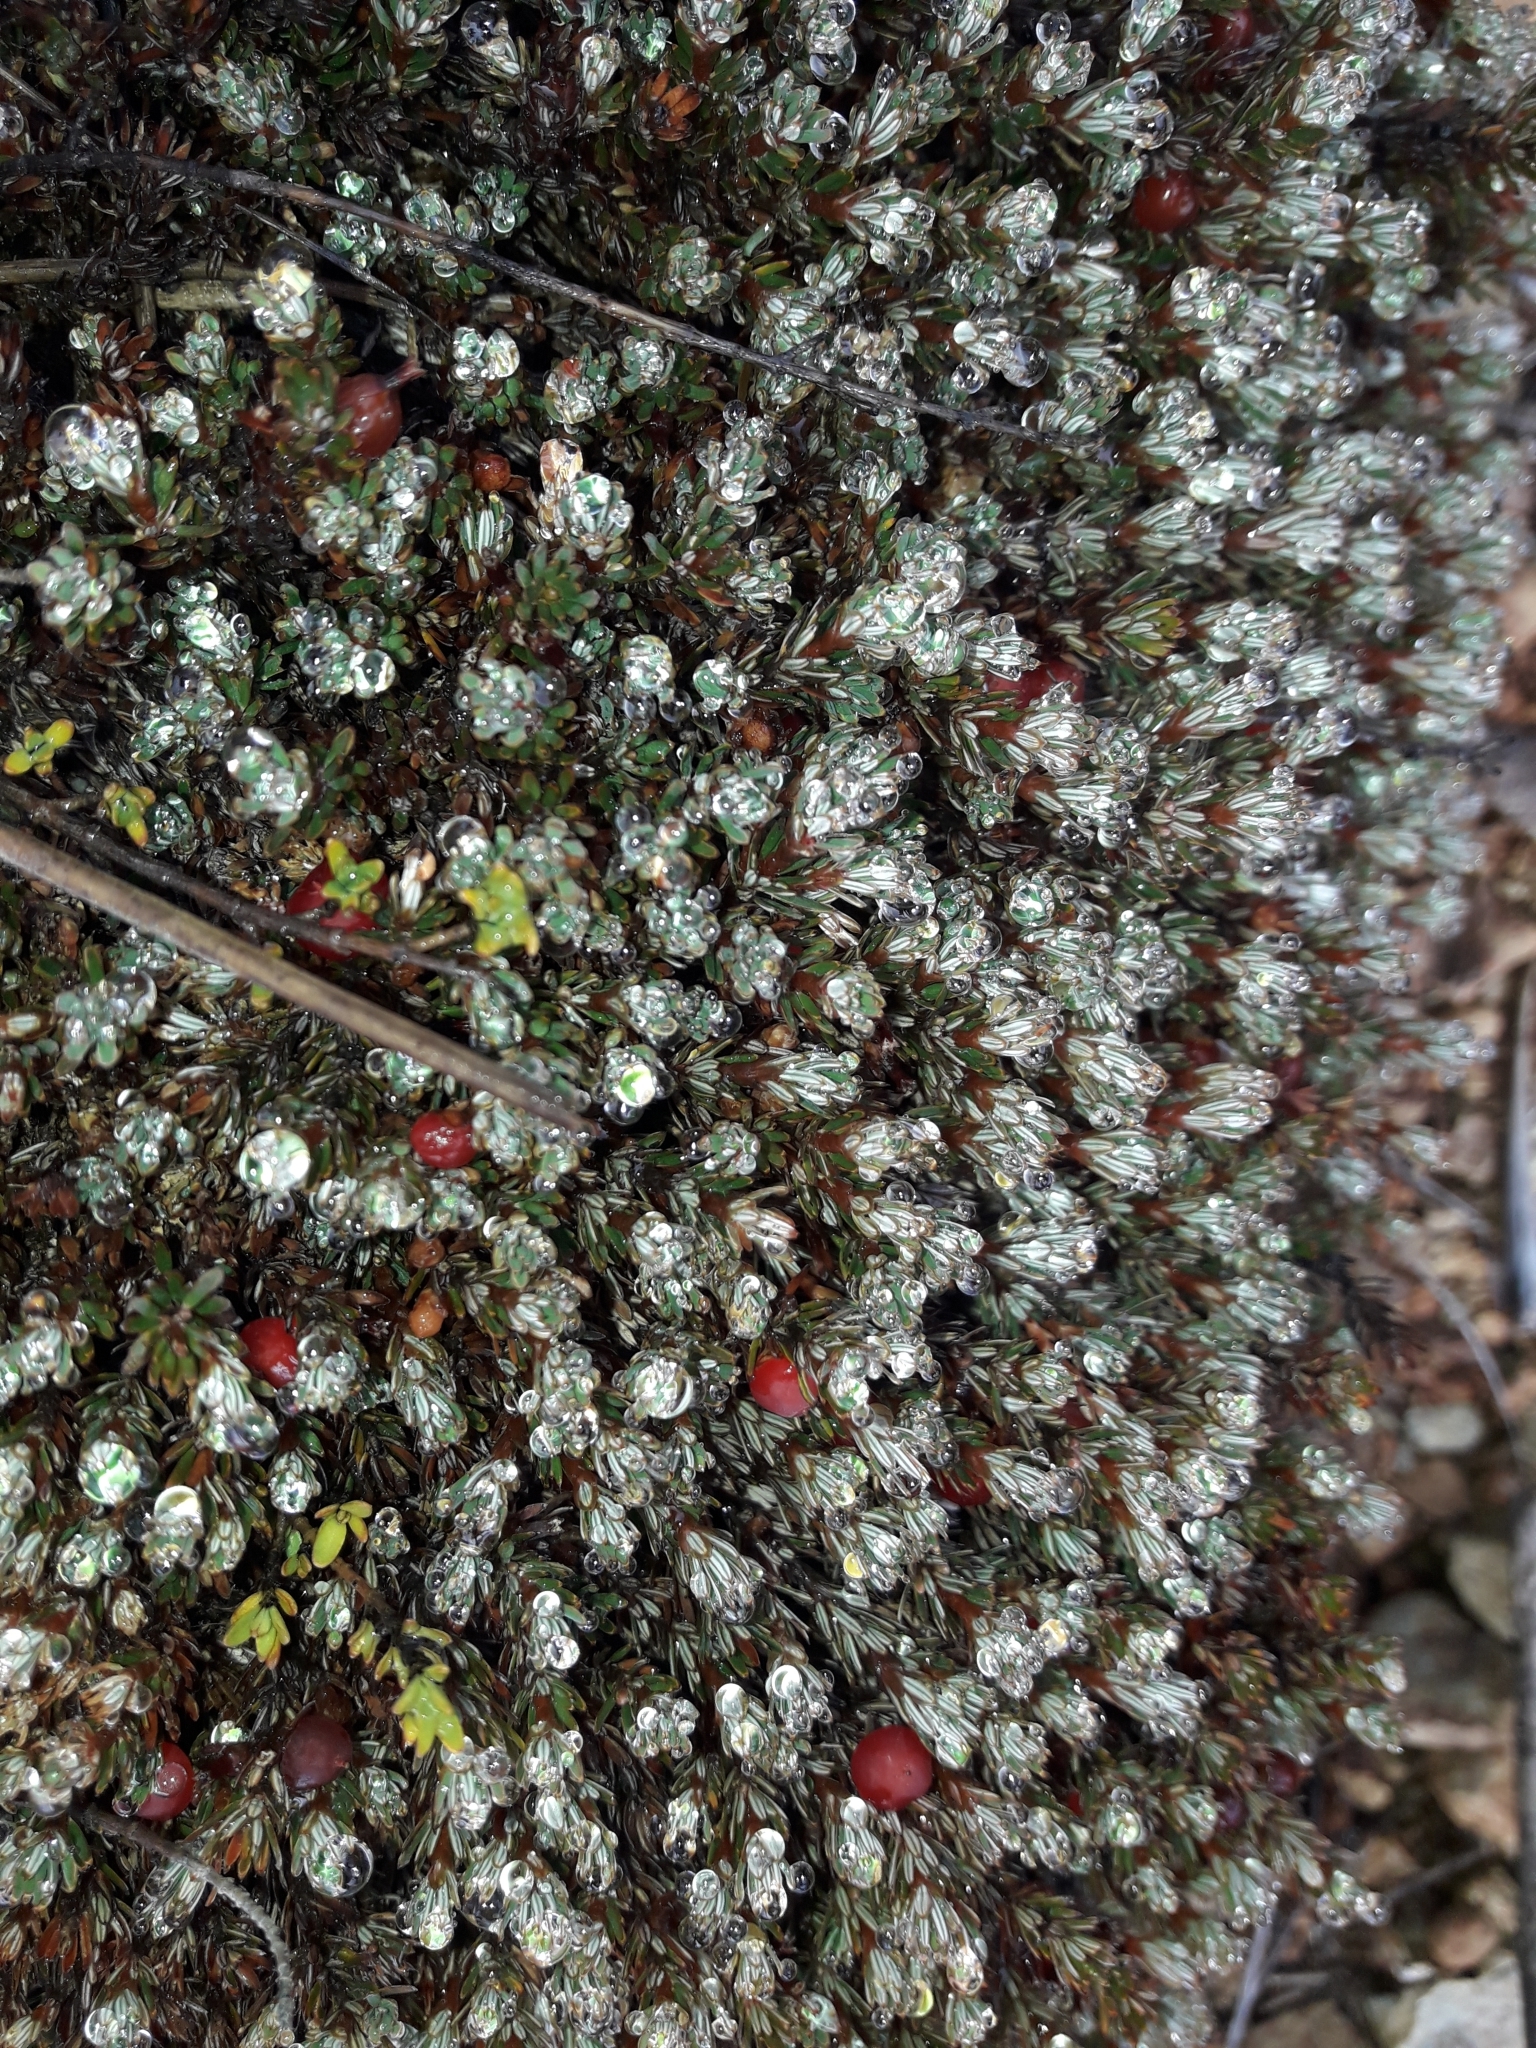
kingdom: Plantae
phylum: Tracheophyta
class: Magnoliopsida
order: Ericales
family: Ericaceae
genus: Montitega
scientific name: Montitega dealbata
